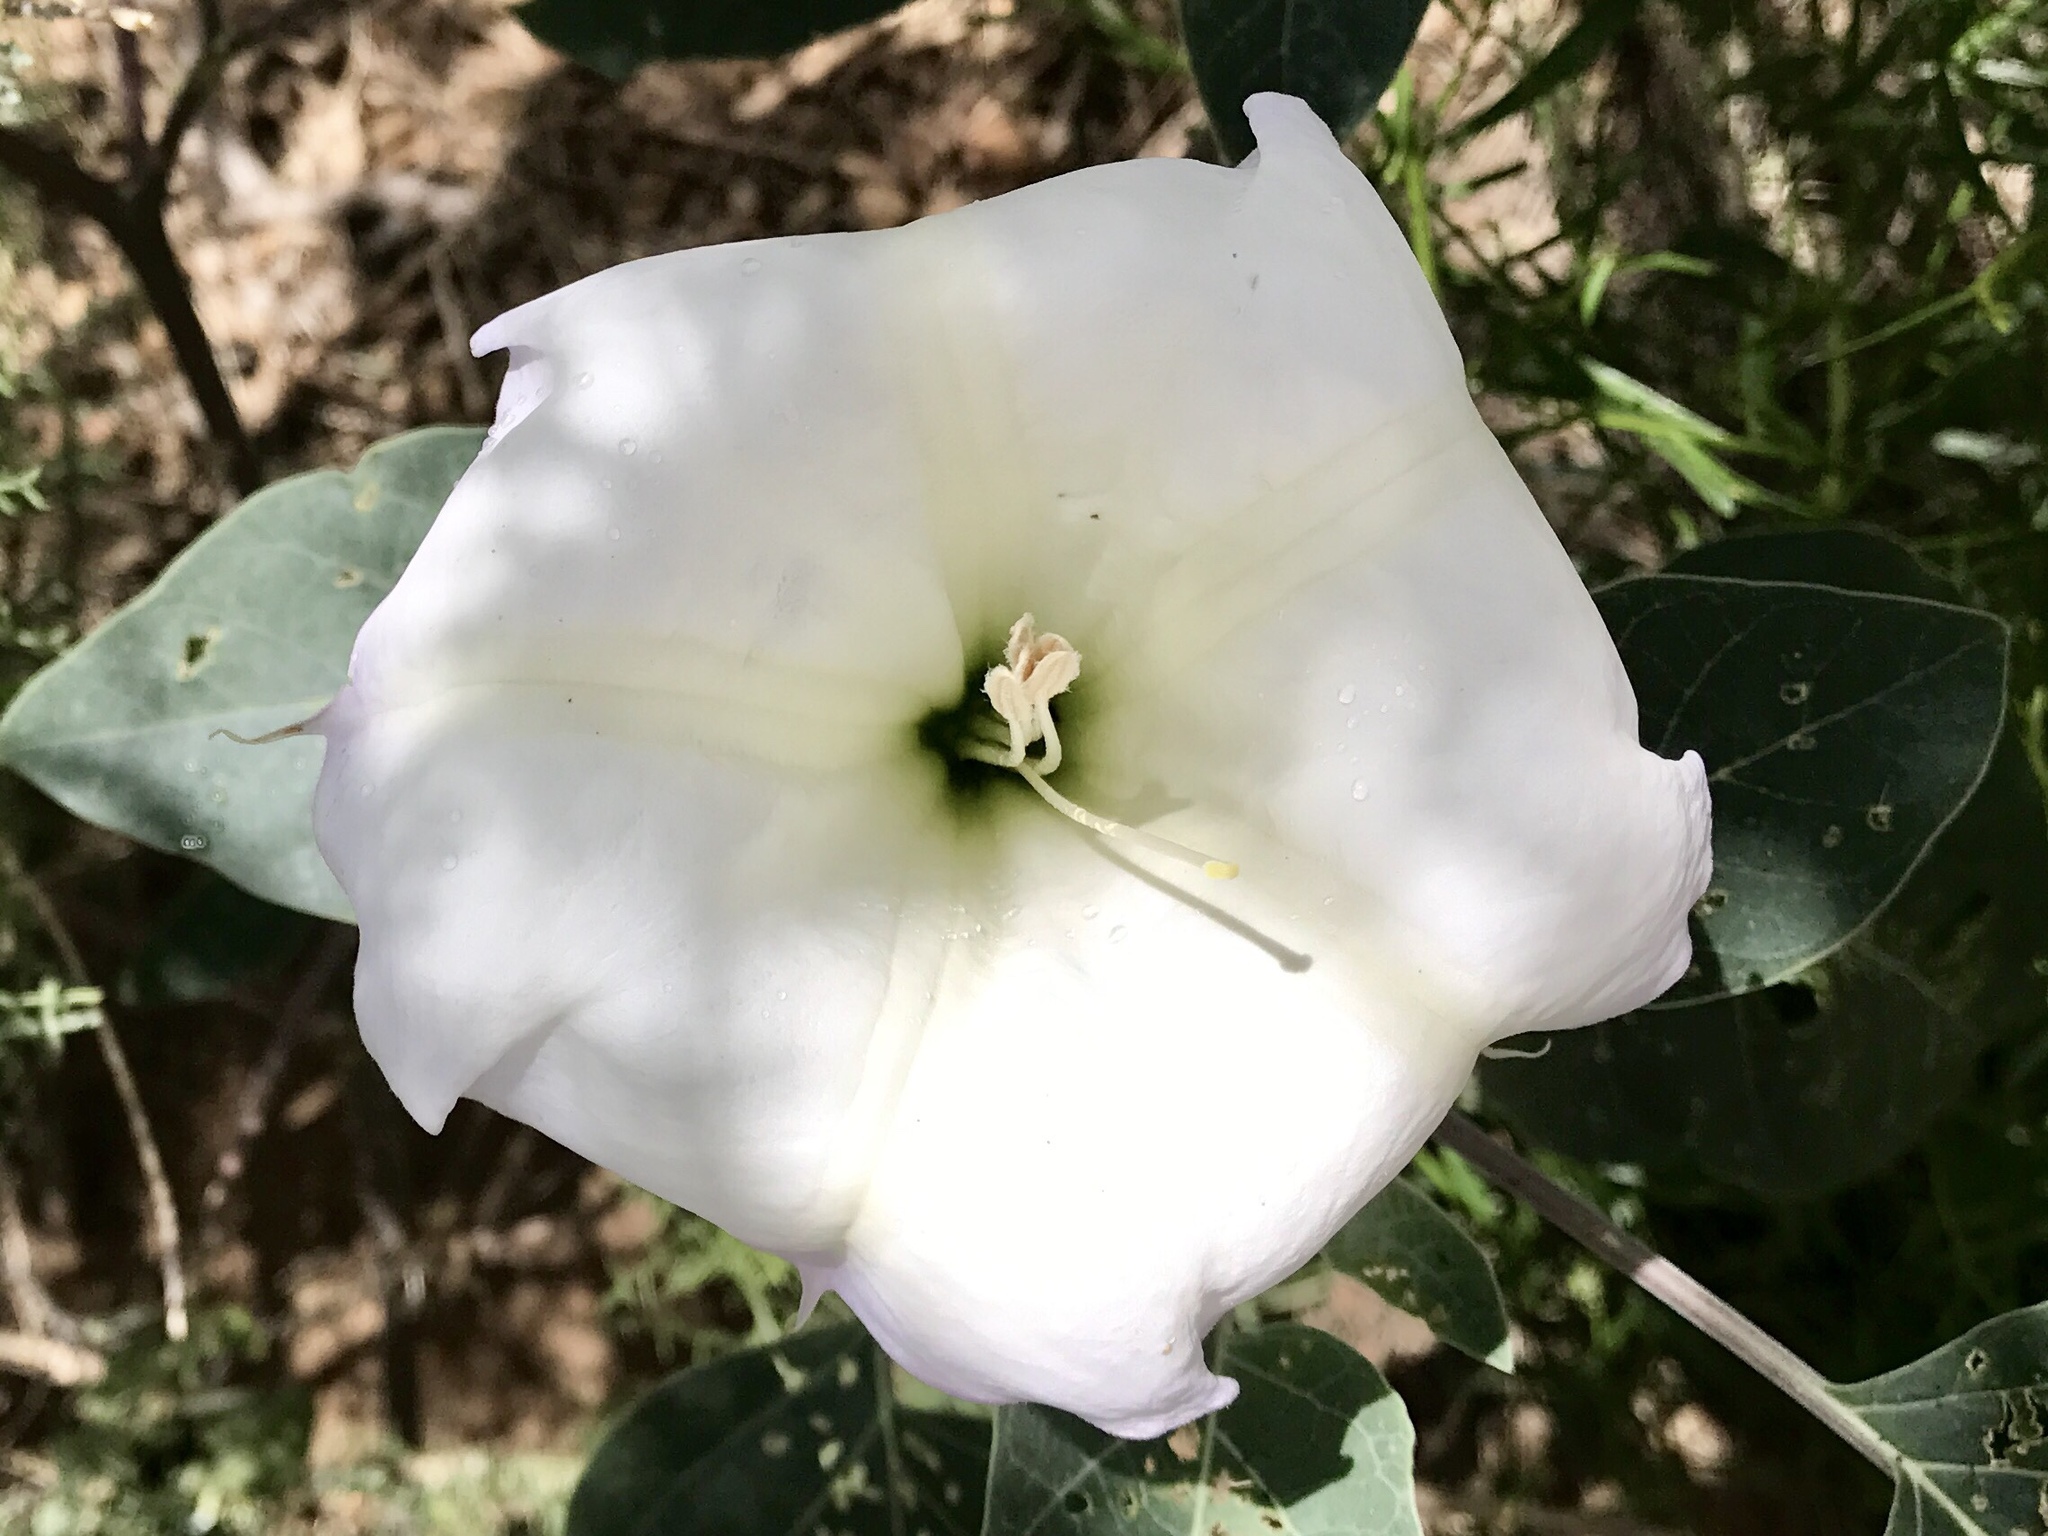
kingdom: Plantae
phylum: Tracheophyta
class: Magnoliopsida
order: Solanales
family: Solanaceae
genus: Datura
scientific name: Datura wrightii
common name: Sacred thorn-apple
